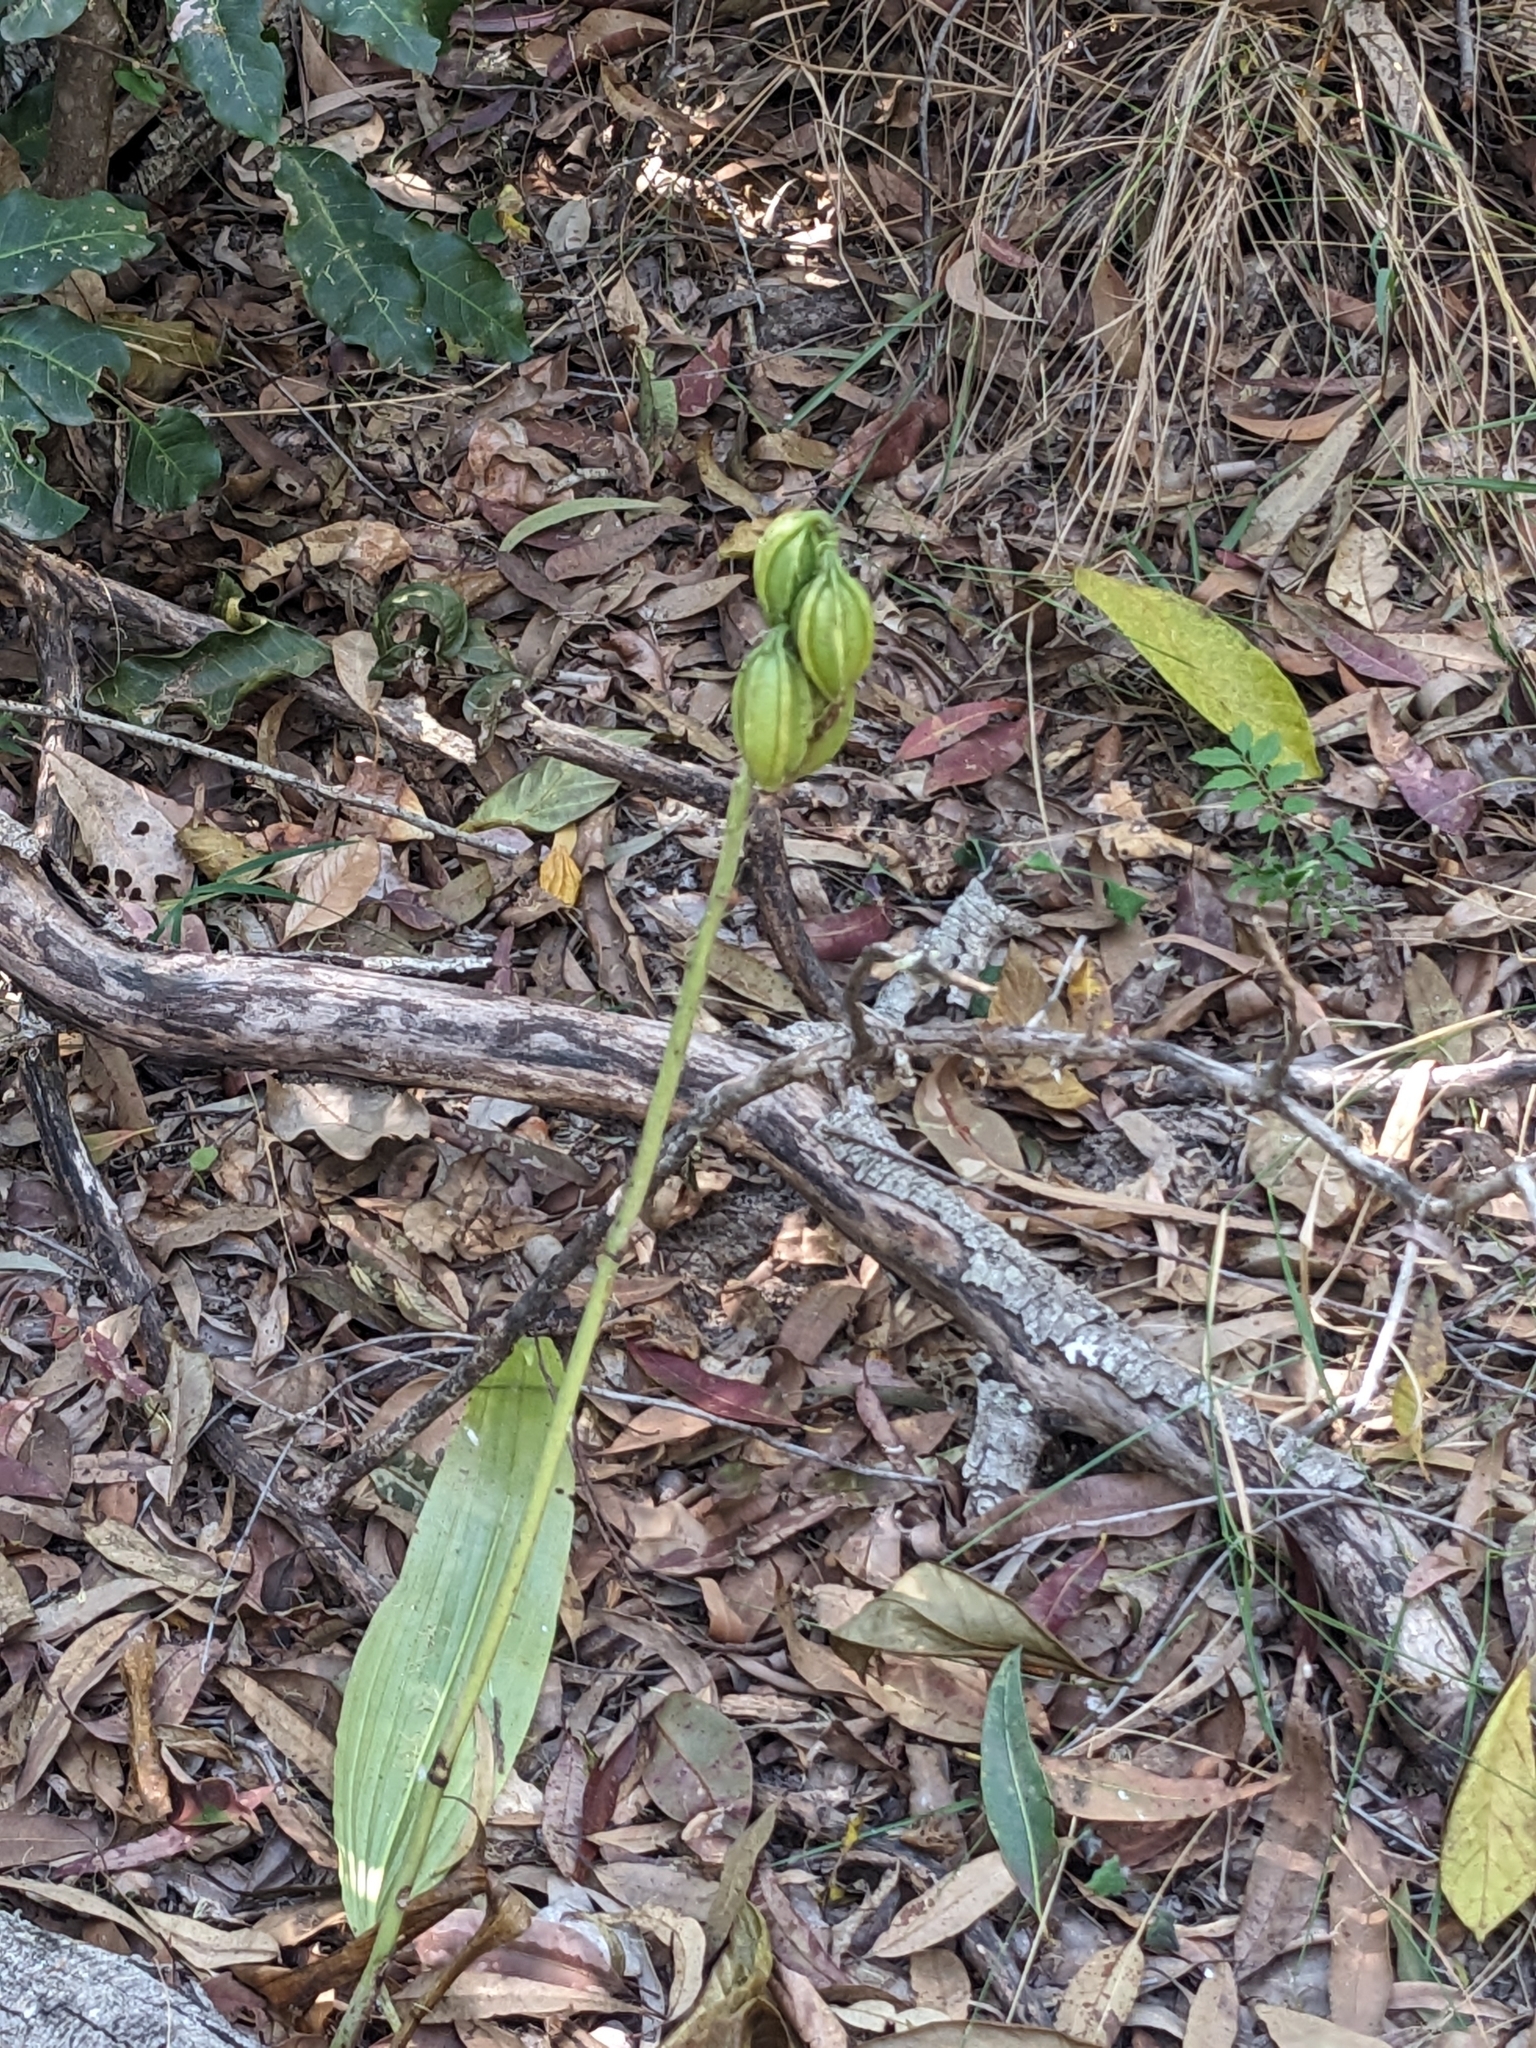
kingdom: Plantae
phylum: Tracheophyta
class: Liliopsida
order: Asparagales
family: Orchidaceae
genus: Eulophia
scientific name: Eulophia cernua
